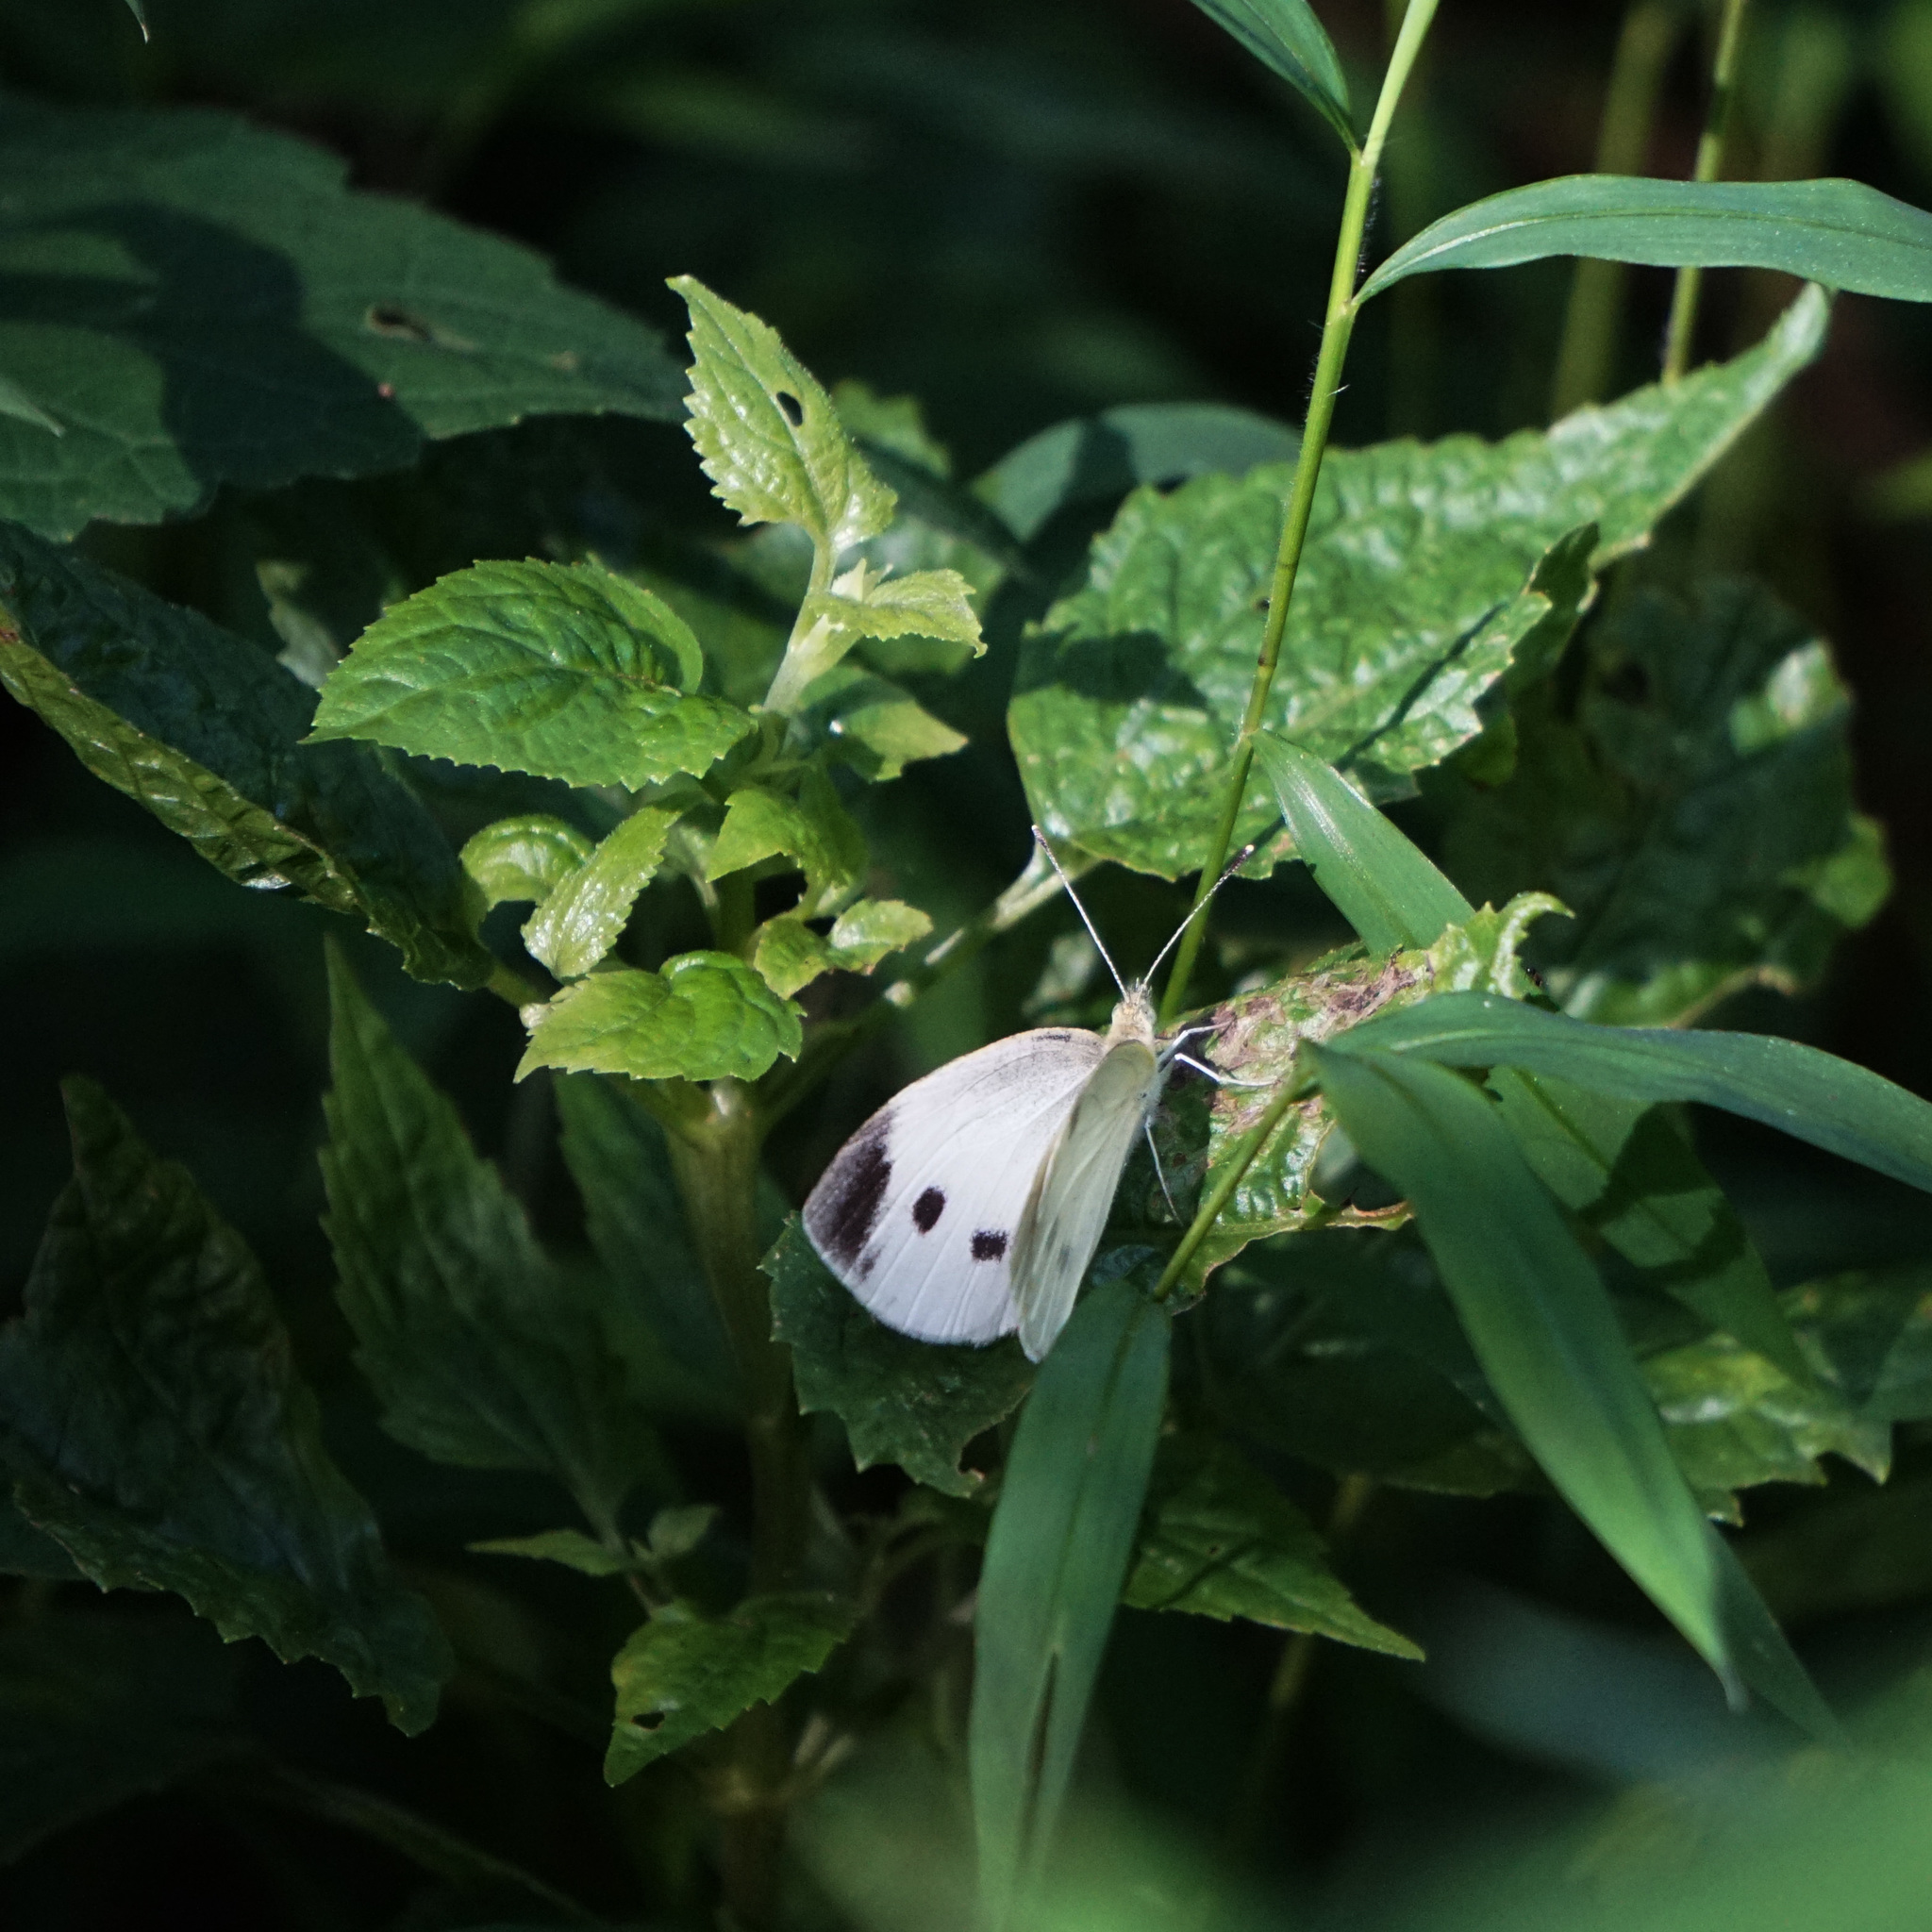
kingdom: Animalia
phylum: Arthropoda
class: Insecta
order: Lepidoptera
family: Pieridae
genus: Pieris
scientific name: Pieris rapae
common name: Small white
